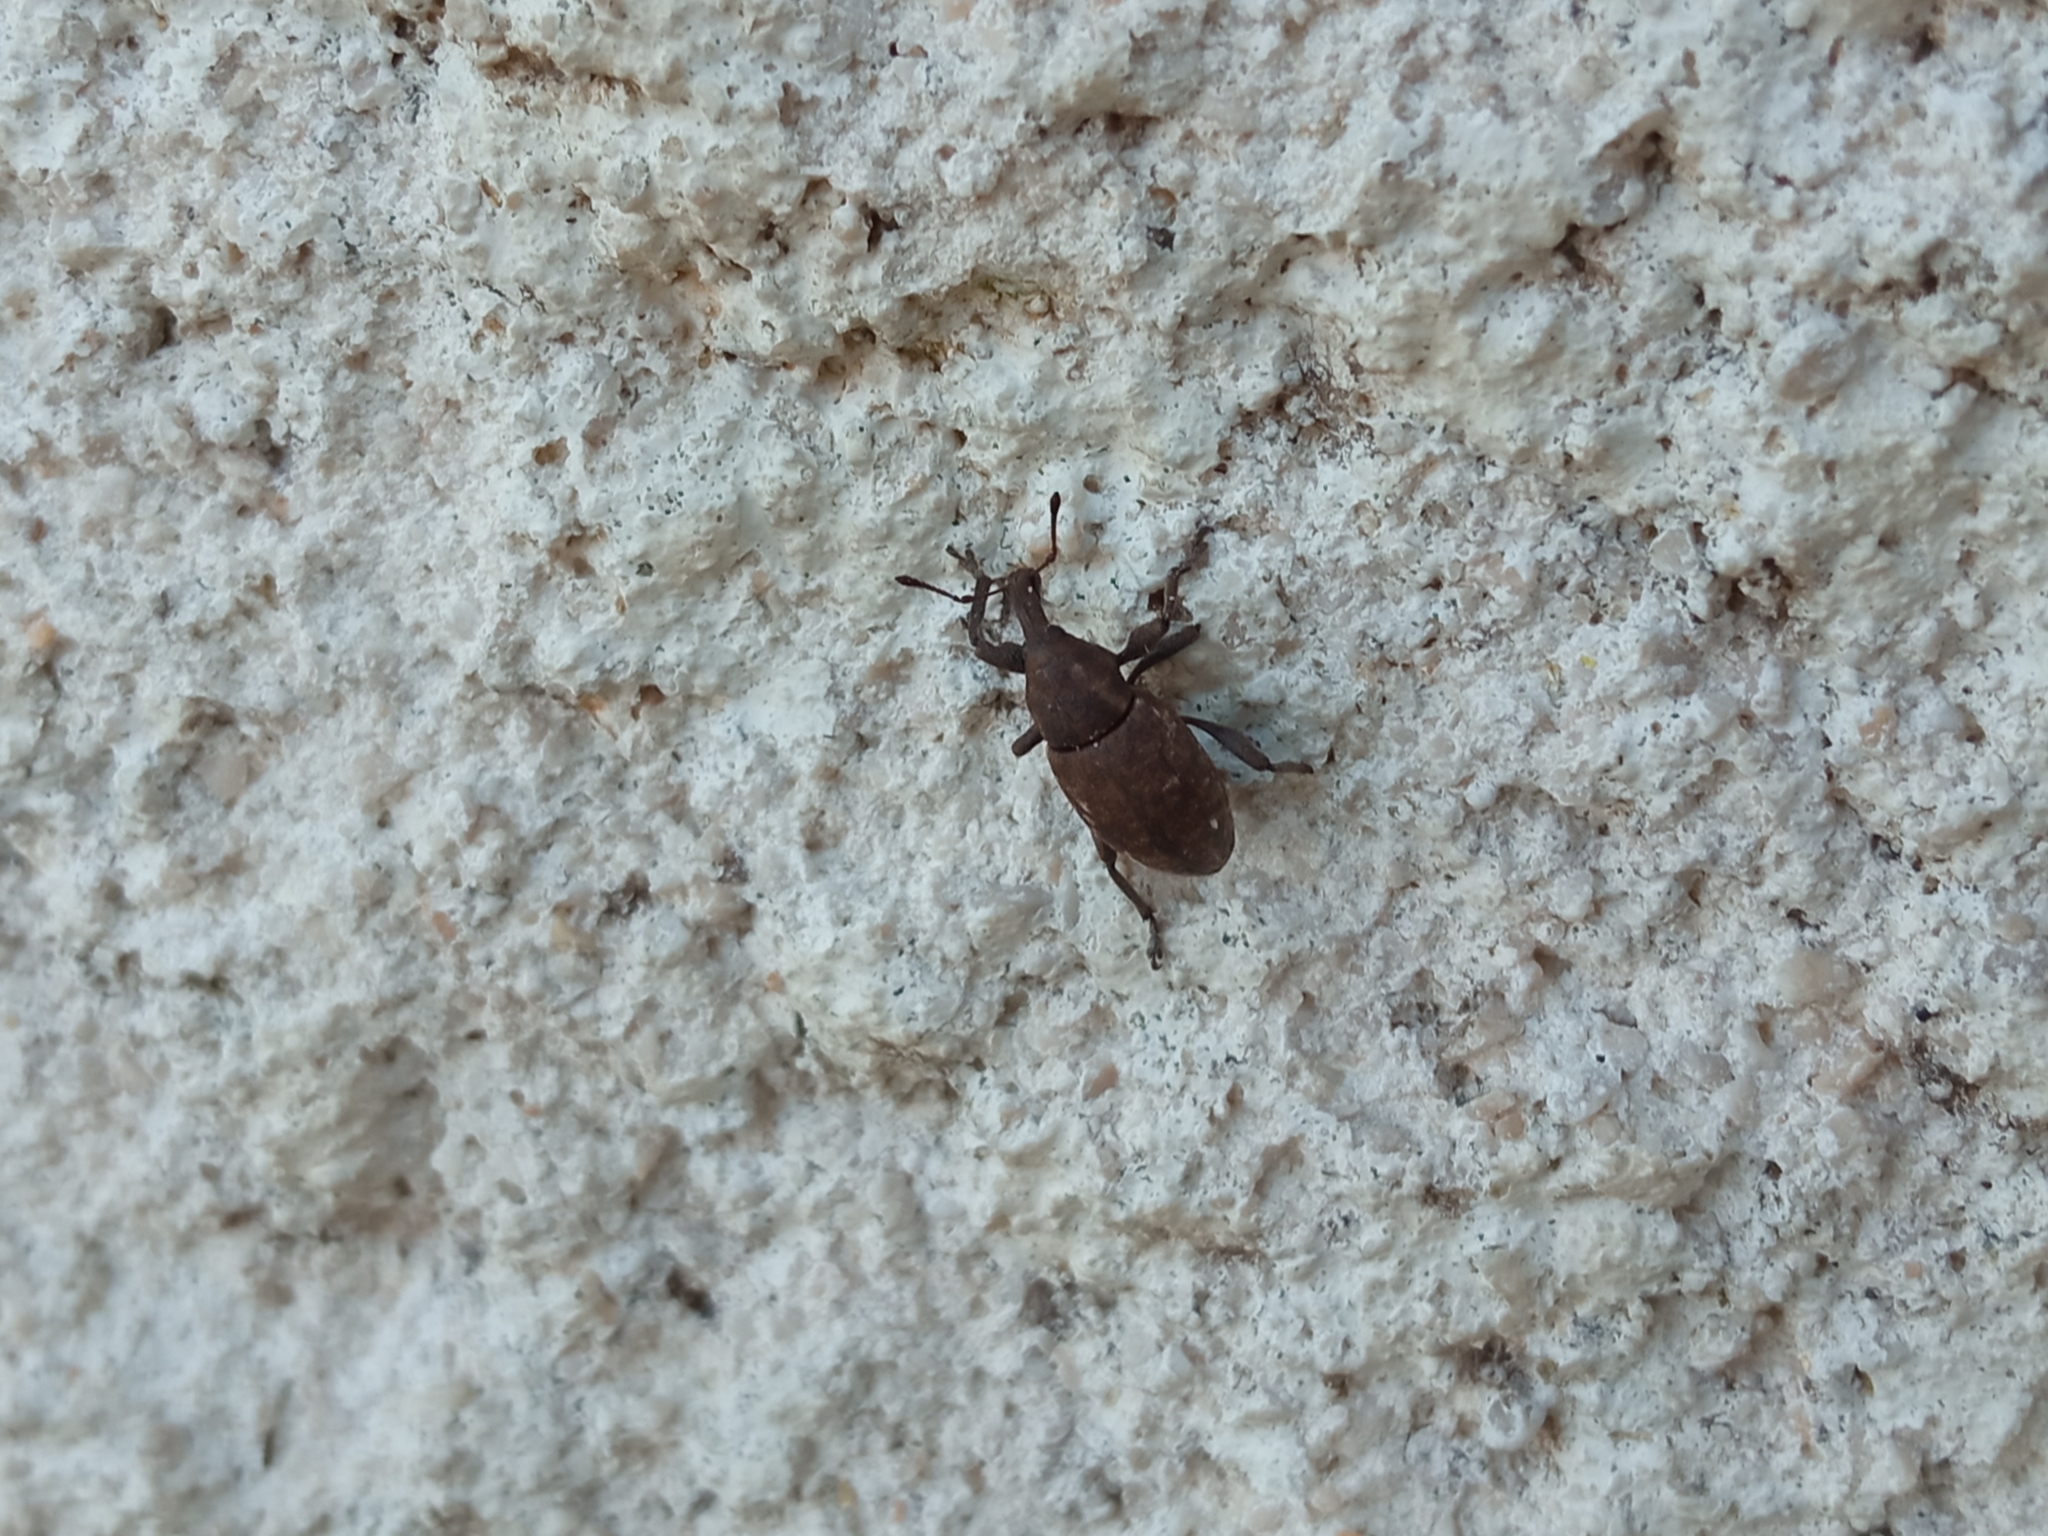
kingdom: Animalia
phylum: Arthropoda
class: Insecta
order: Coleoptera
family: Curculionidae
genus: Lepyrus
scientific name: Lepyrus capucinus
